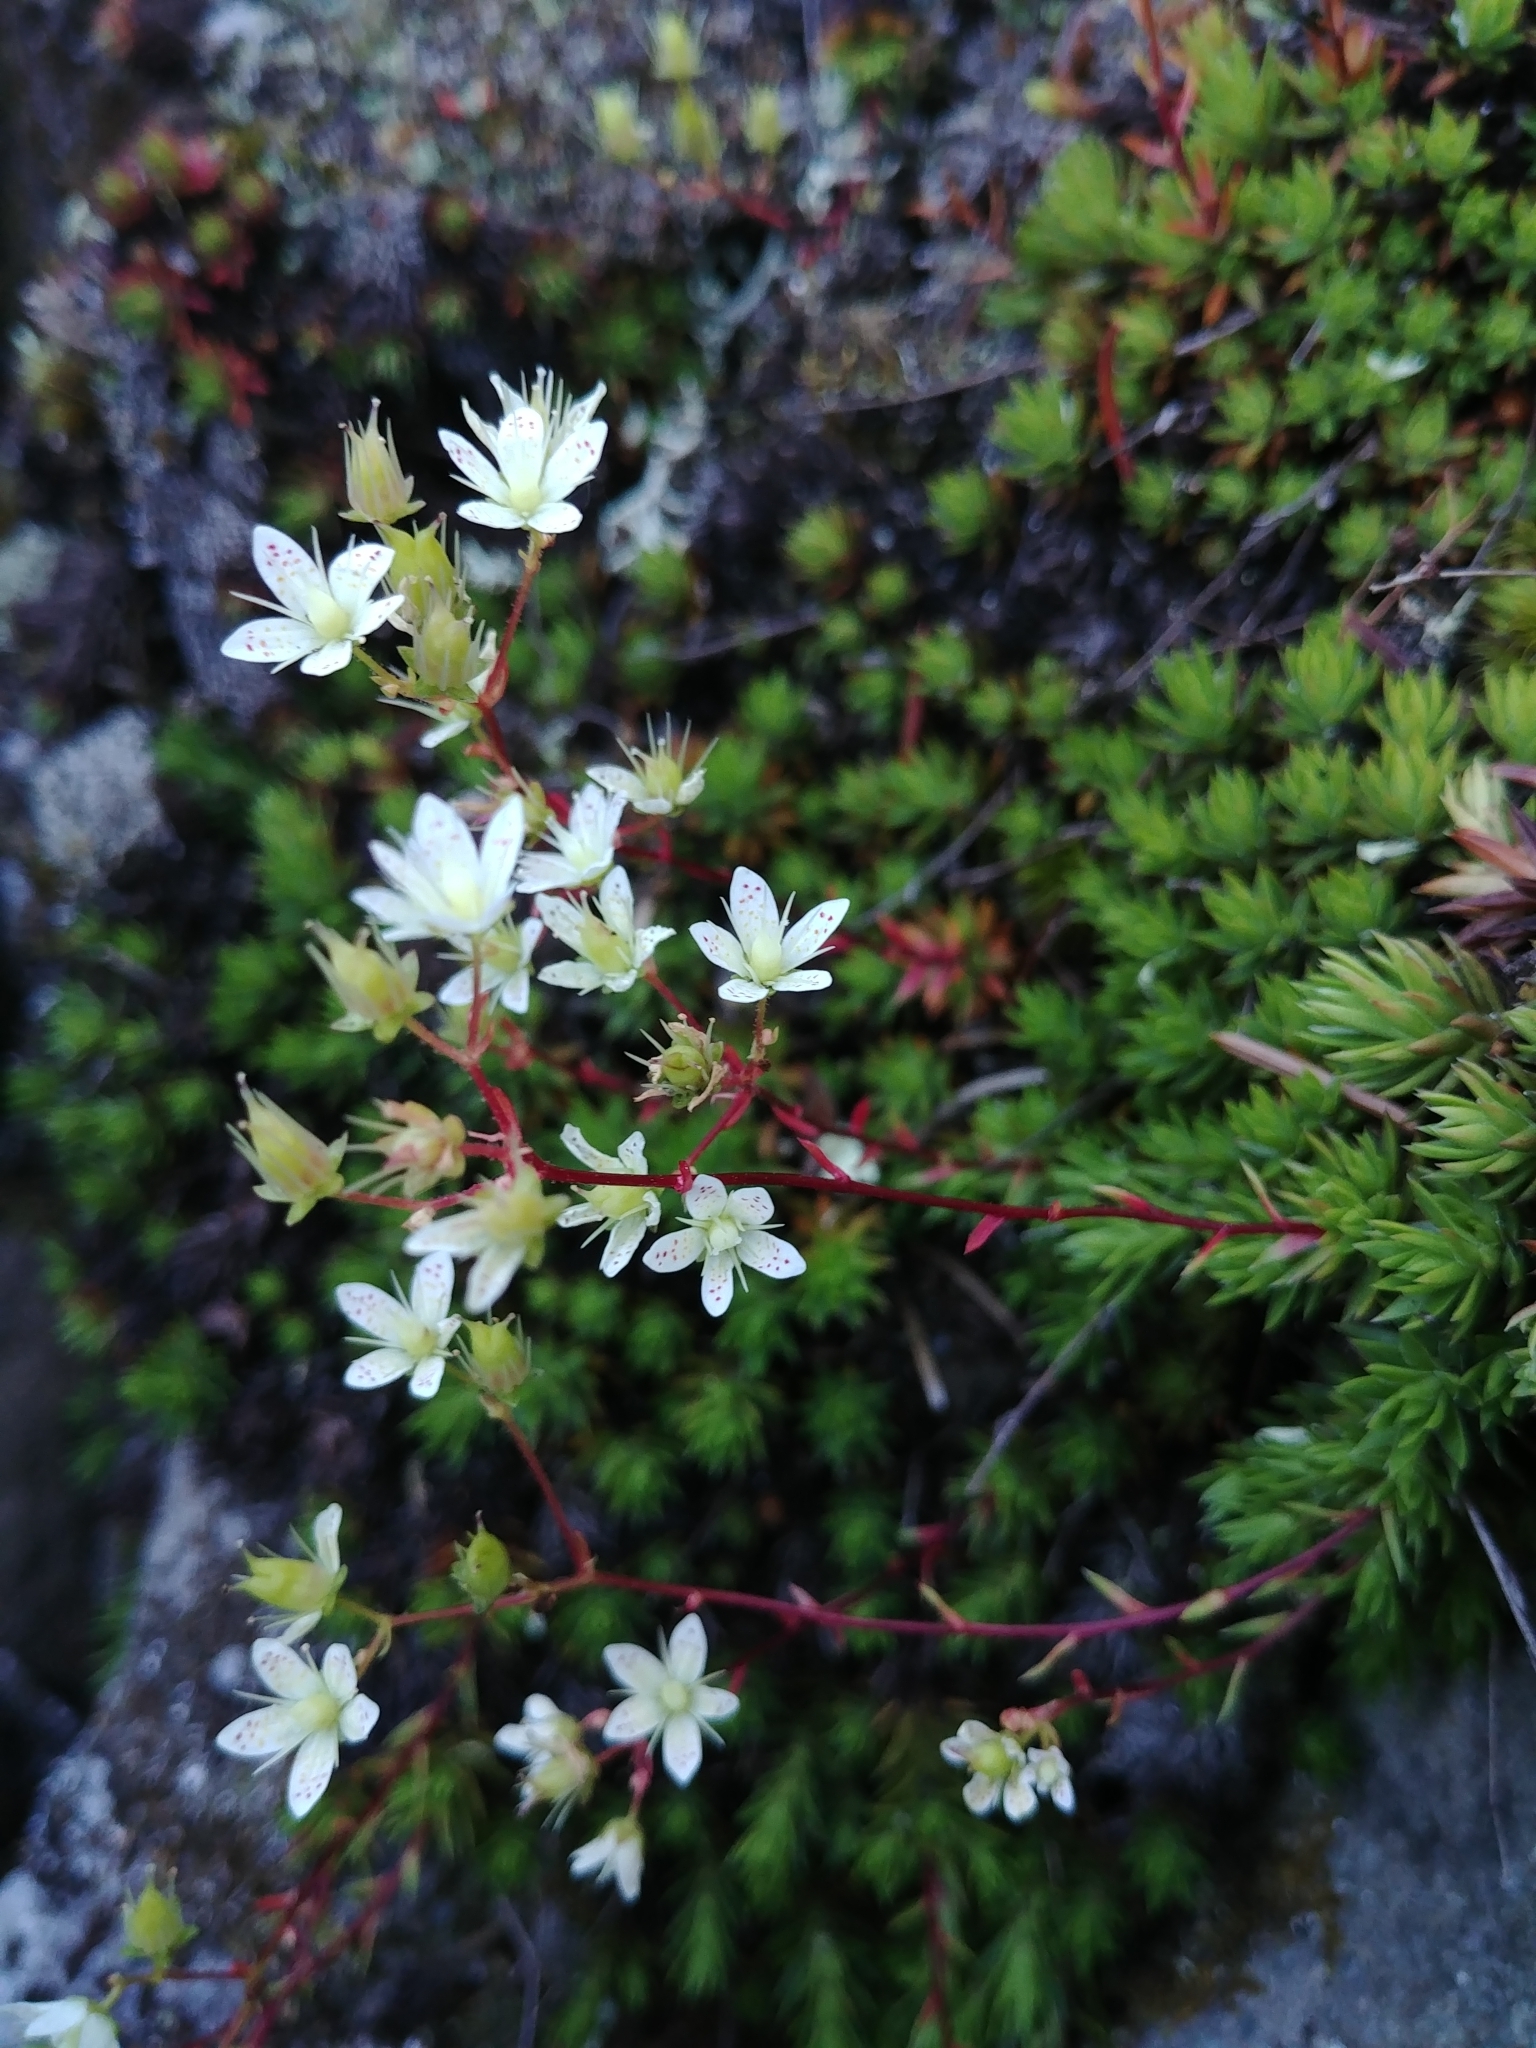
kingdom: Plantae
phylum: Tracheophyta
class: Magnoliopsida
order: Saxifragales
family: Saxifragaceae
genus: Saxifraga
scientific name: Saxifraga bronchialis
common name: Matted saxifrage
